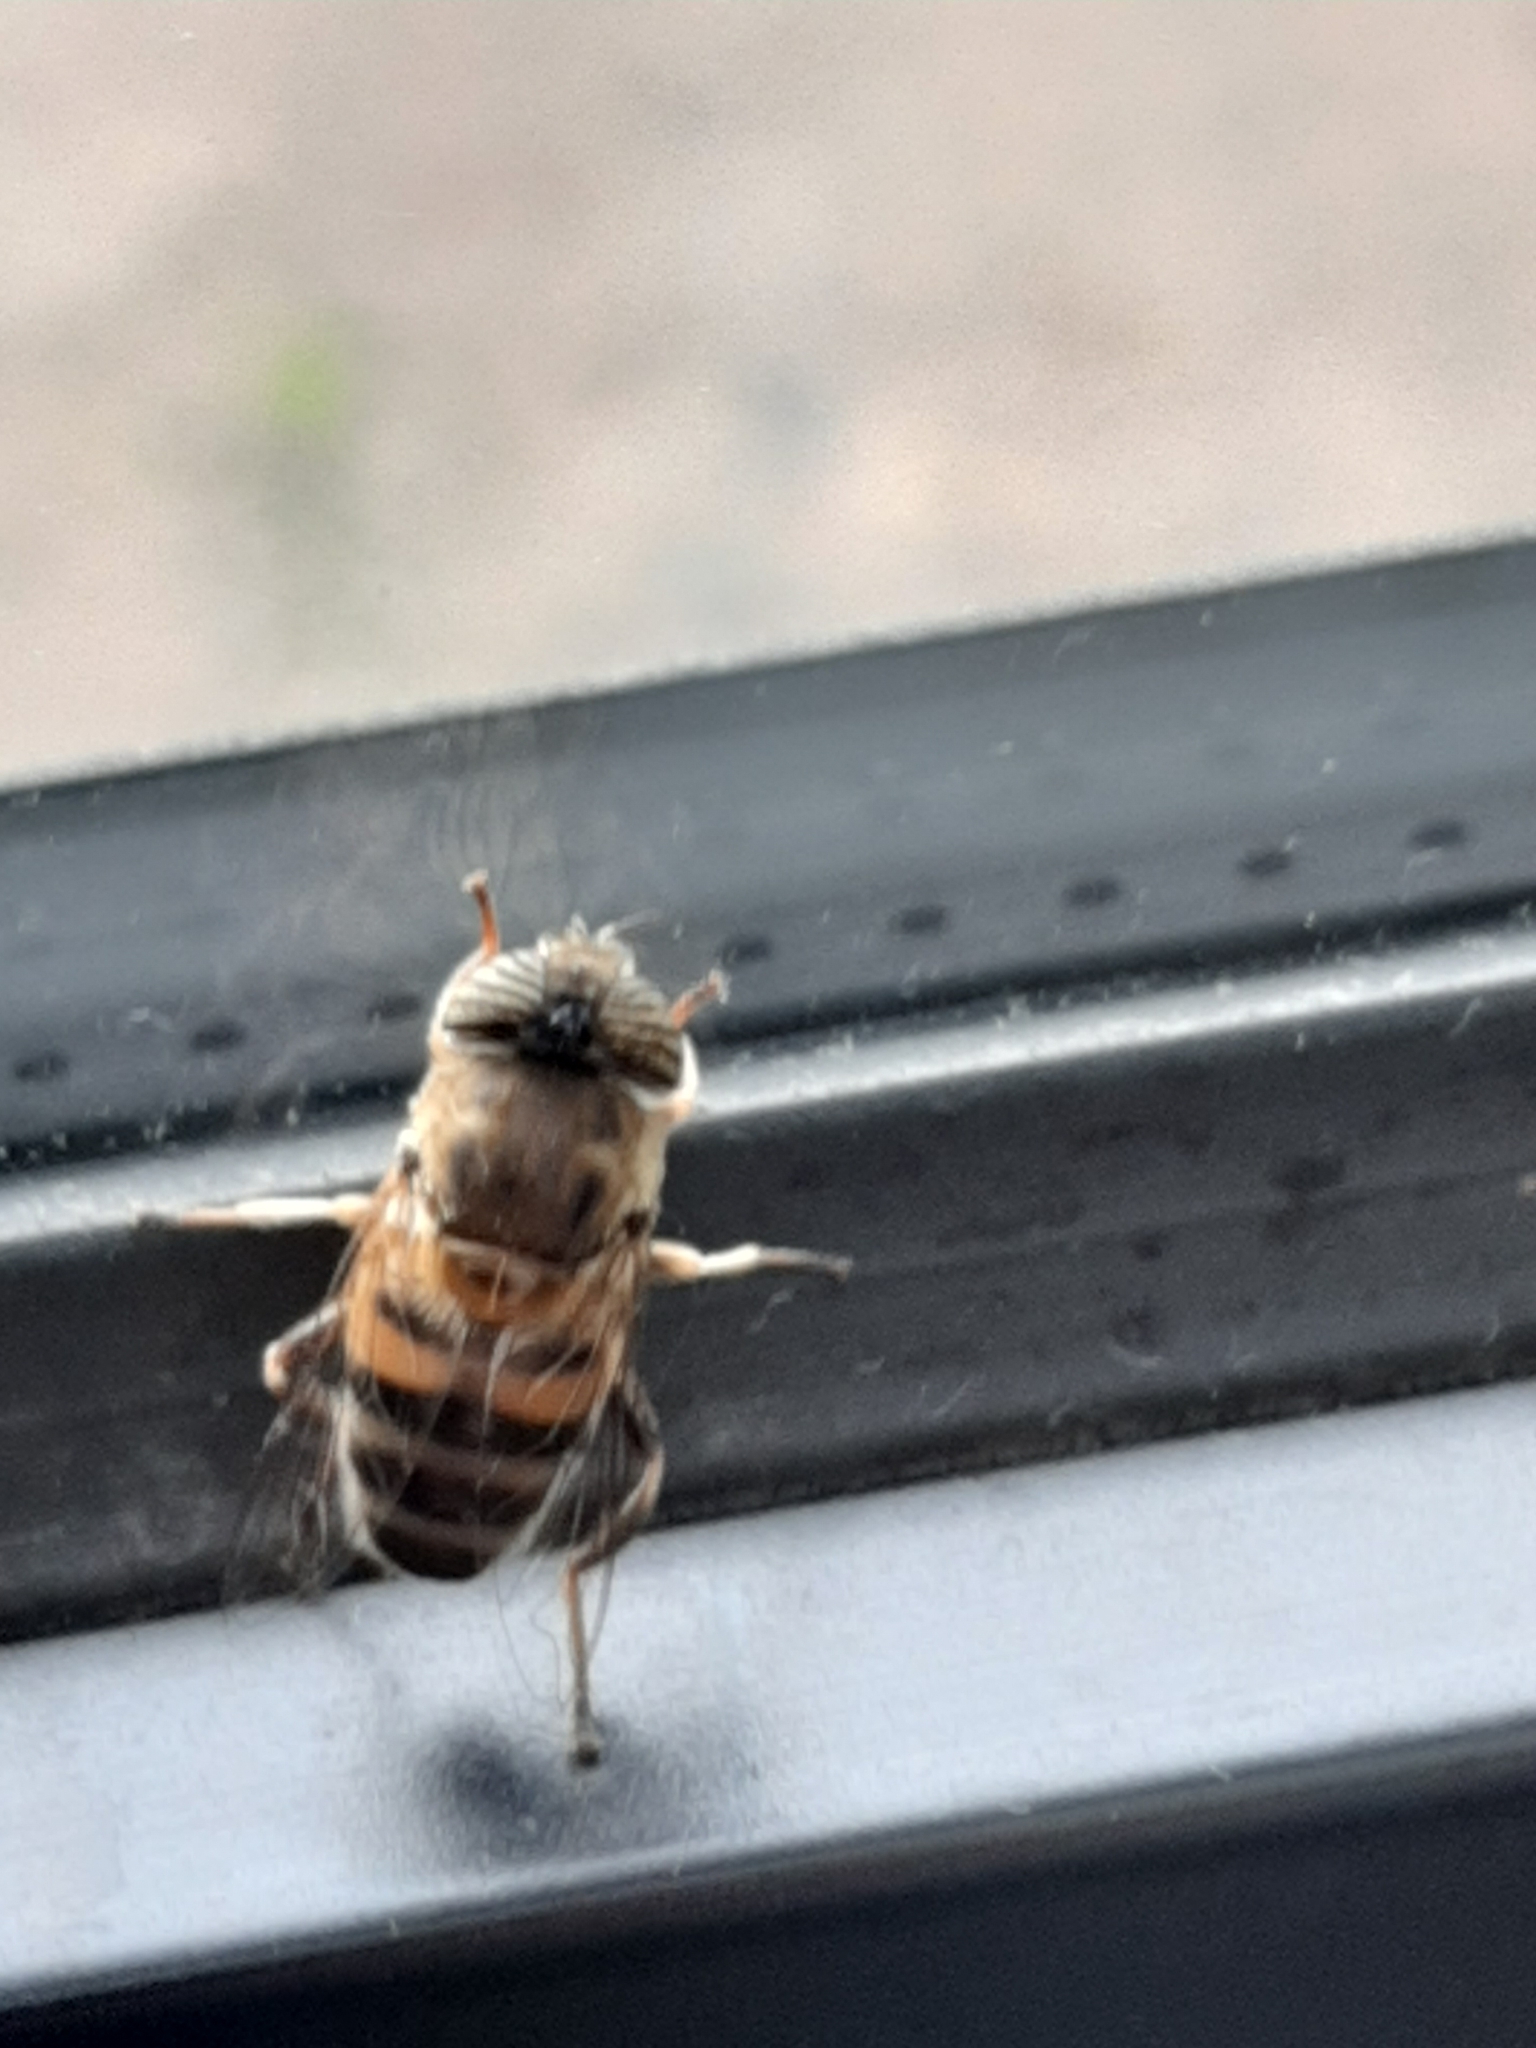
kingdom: Animalia
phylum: Arthropoda
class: Insecta
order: Diptera
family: Syrphidae
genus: Eristalinus
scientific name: Eristalinus taeniops
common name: Syrphid fly
